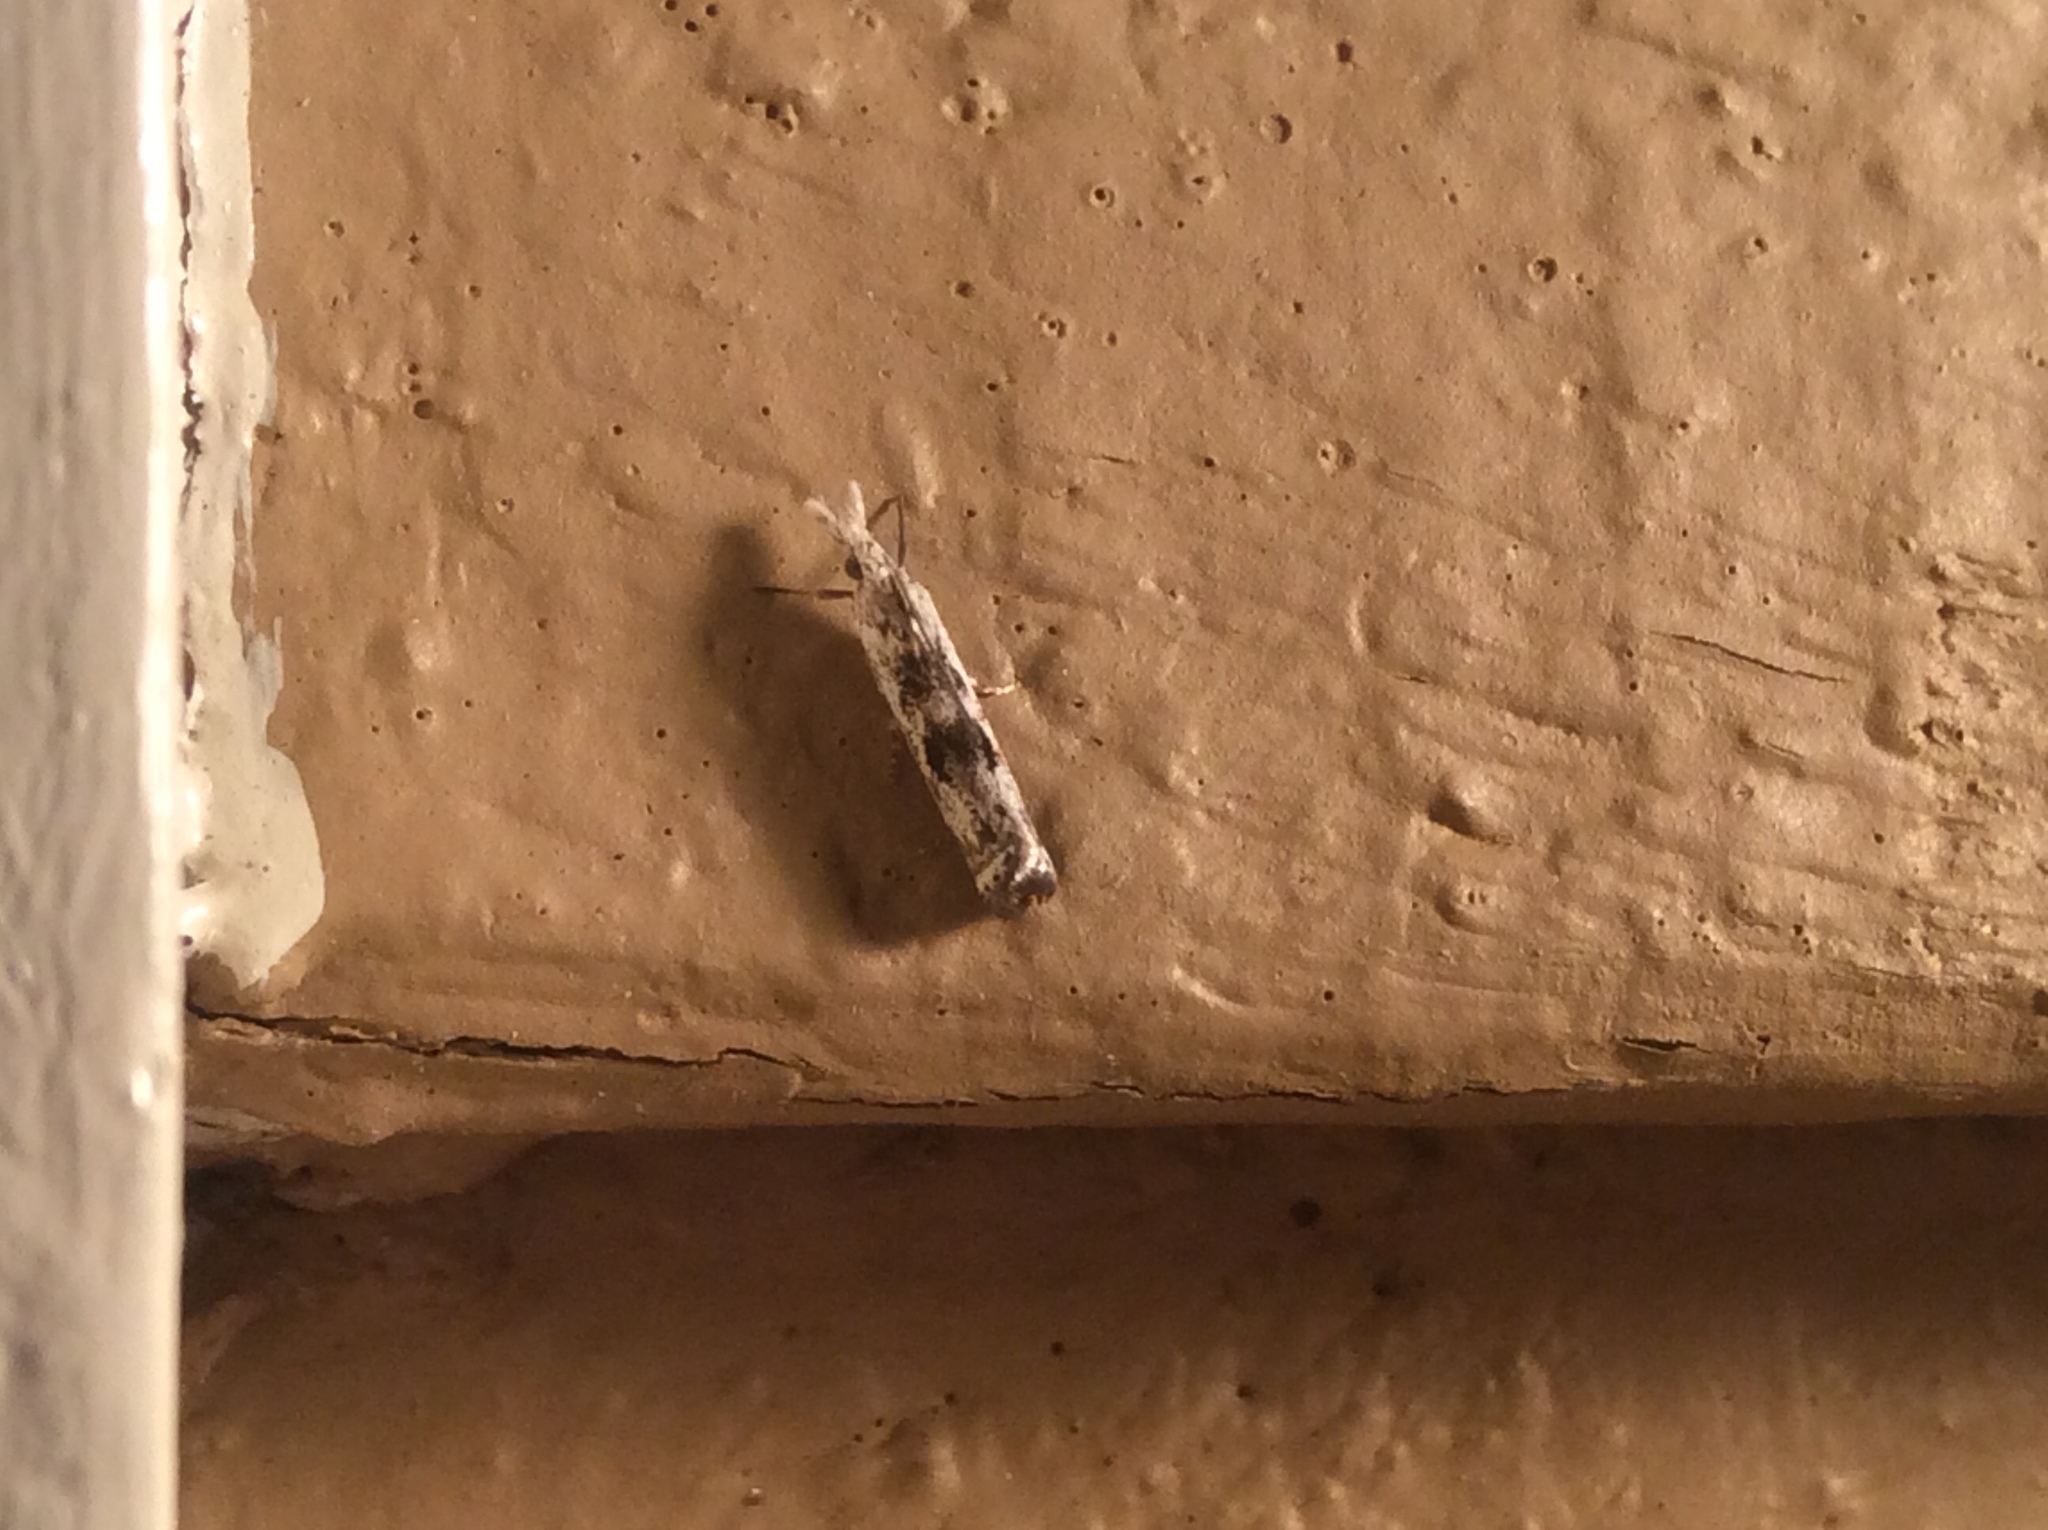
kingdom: Animalia
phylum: Arthropoda
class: Insecta
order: Lepidoptera
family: Crambidae
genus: Microcrambus
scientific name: Microcrambus immunellus
